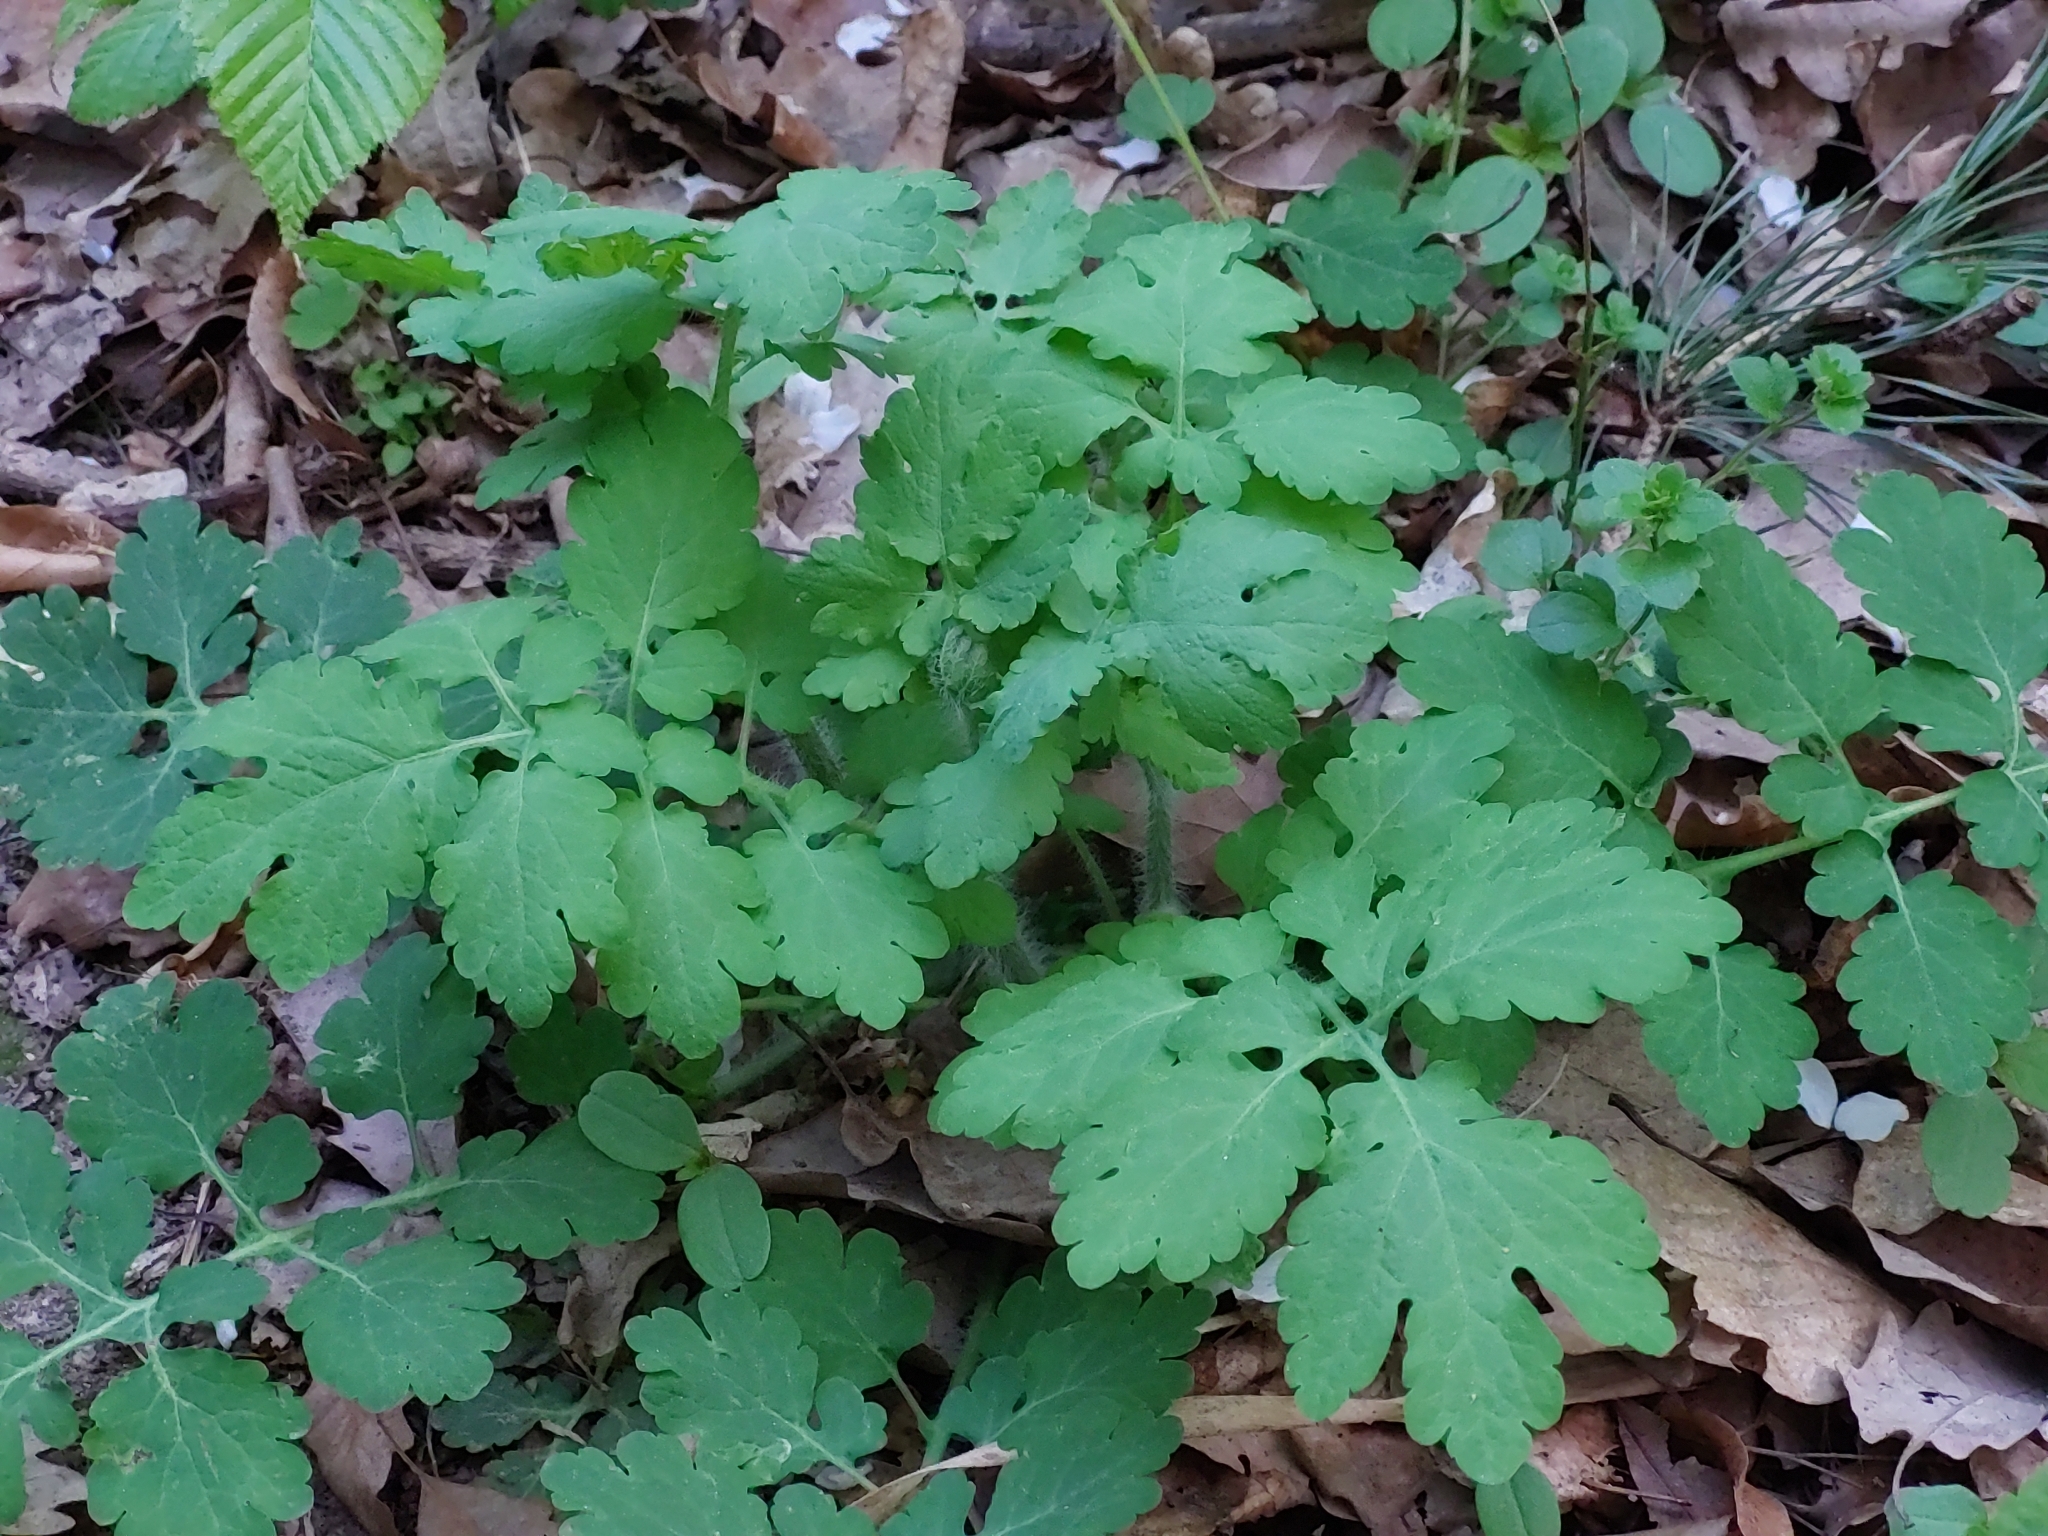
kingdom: Plantae
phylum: Tracheophyta
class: Magnoliopsida
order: Ranunculales
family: Papaveraceae
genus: Chelidonium
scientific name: Chelidonium majus
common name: Greater celandine
